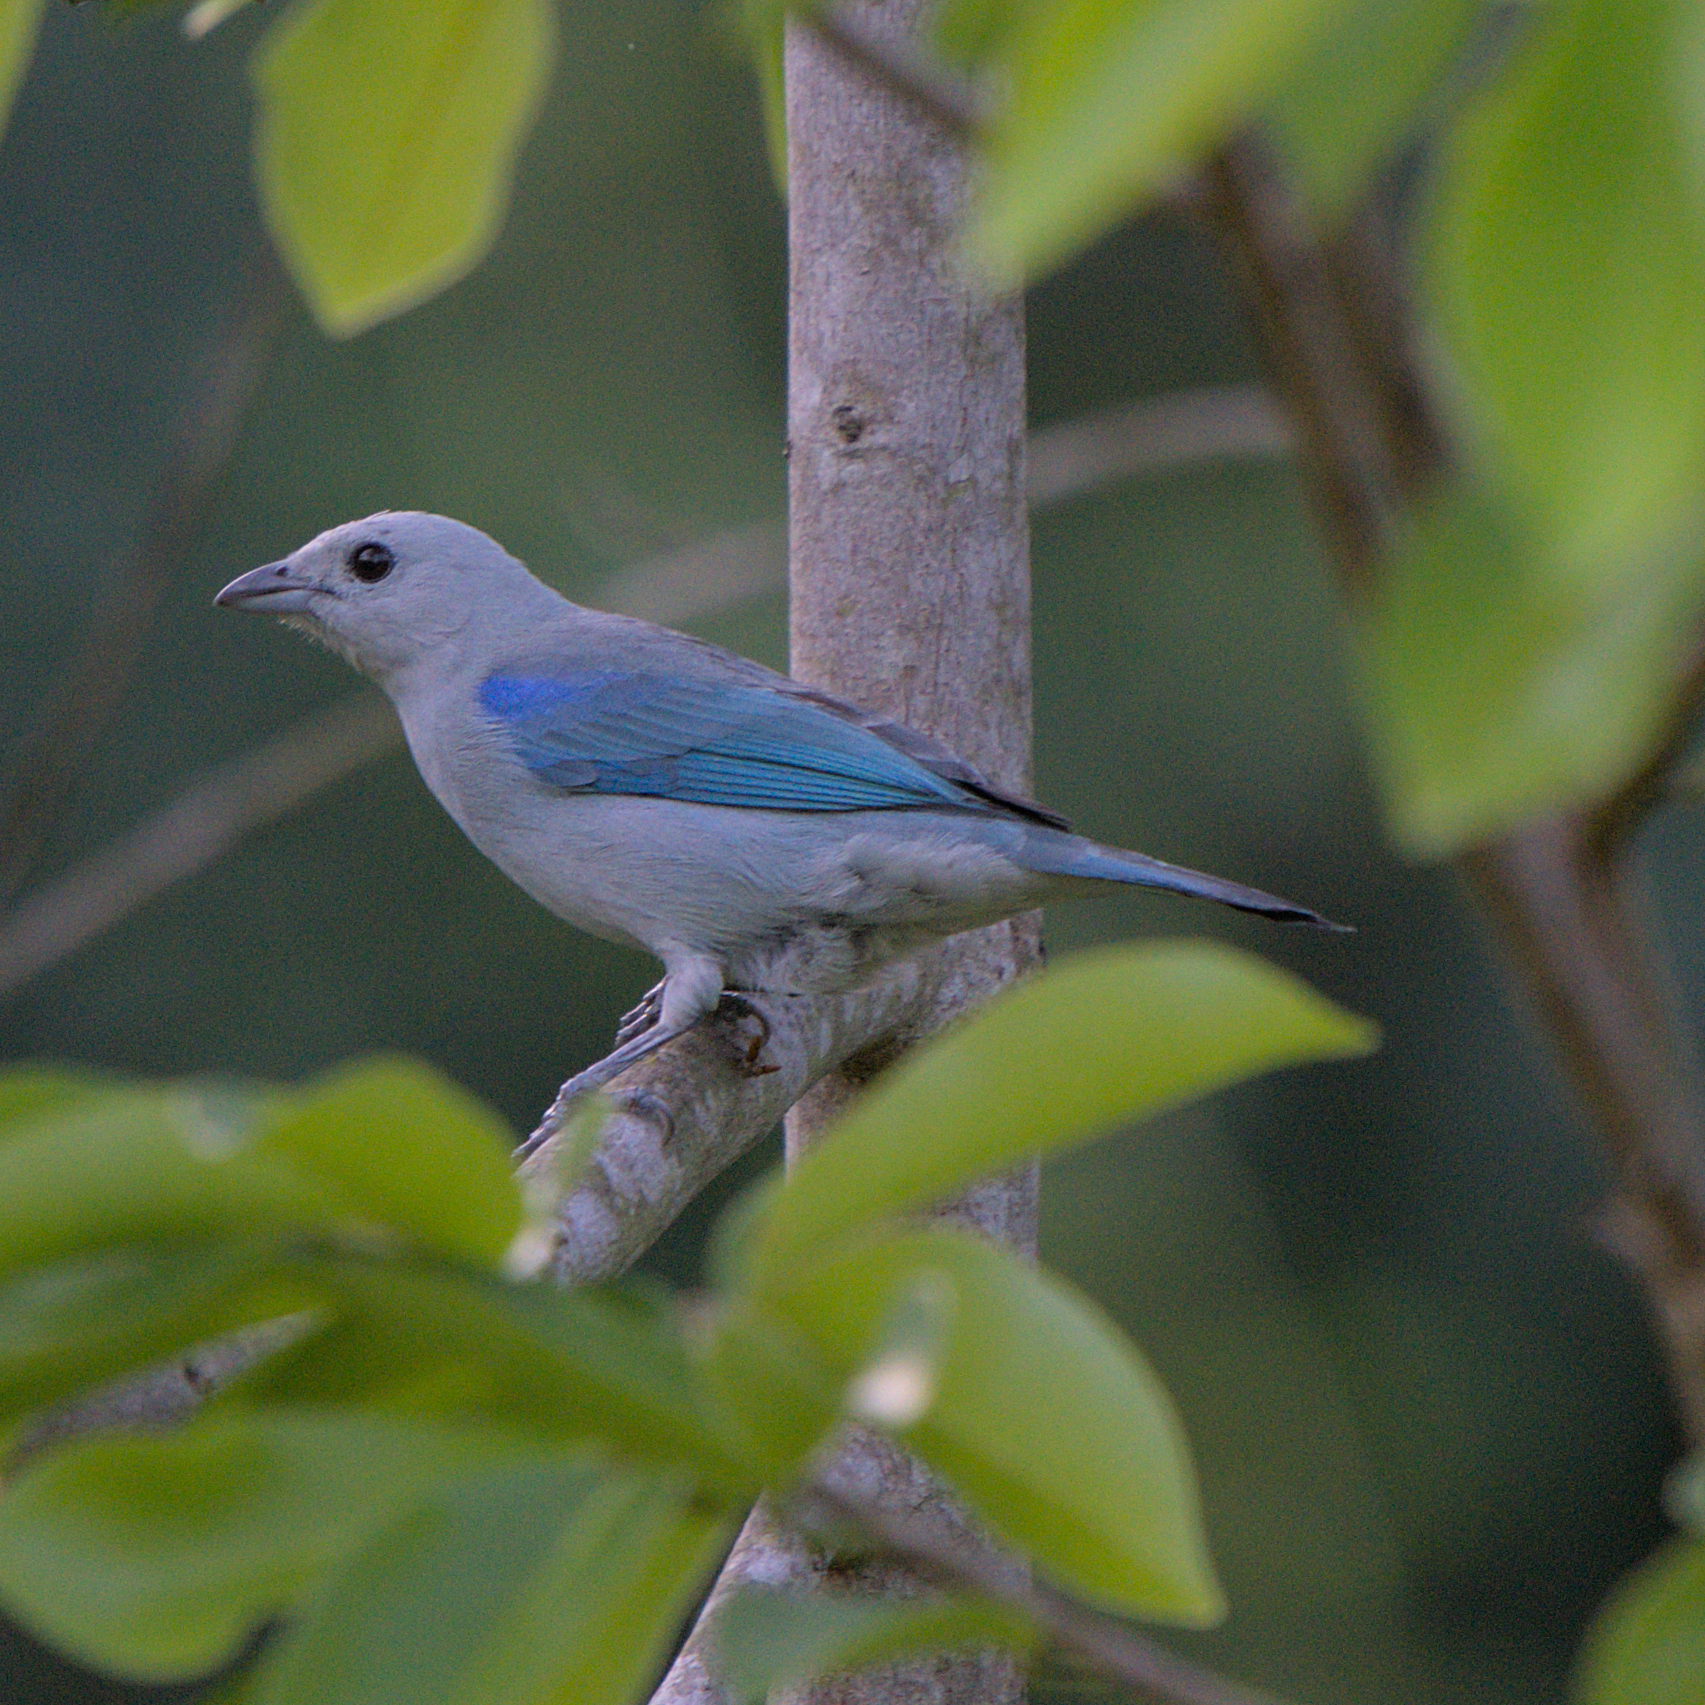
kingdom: Animalia
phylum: Chordata
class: Aves
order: Passeriformes
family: Thraupidae
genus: Thraupis
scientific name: Thraupis episcopus
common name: Blue-grey tanager
